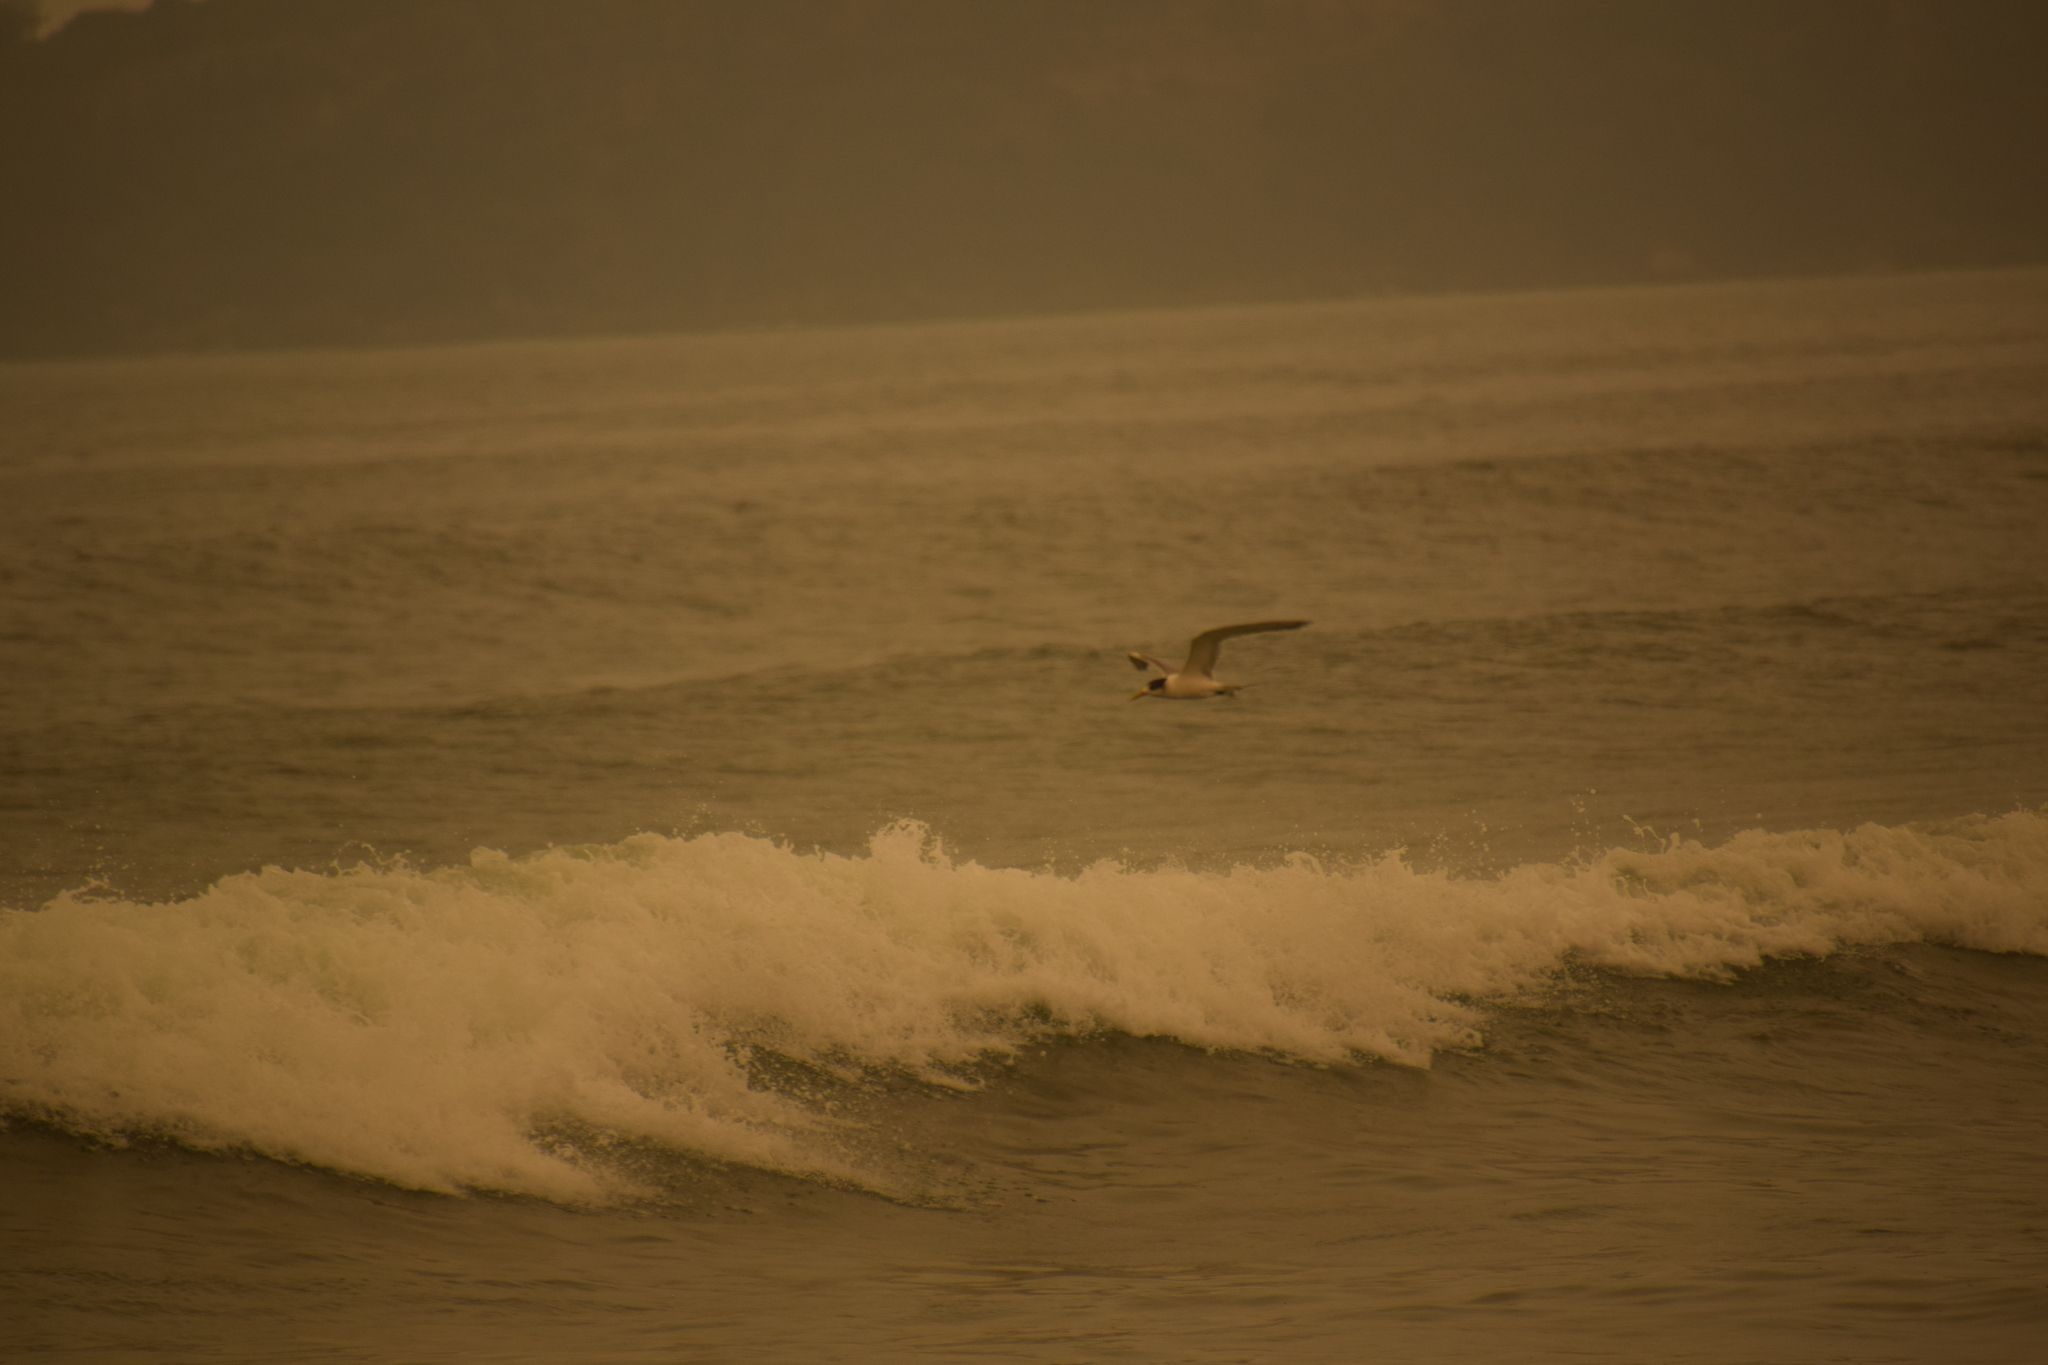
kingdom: Animalia
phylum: Chordata
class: Aves
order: Charadriiformes
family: Laridae
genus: Thalasseus
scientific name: Thalasseus bergii
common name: Greater crested tern
